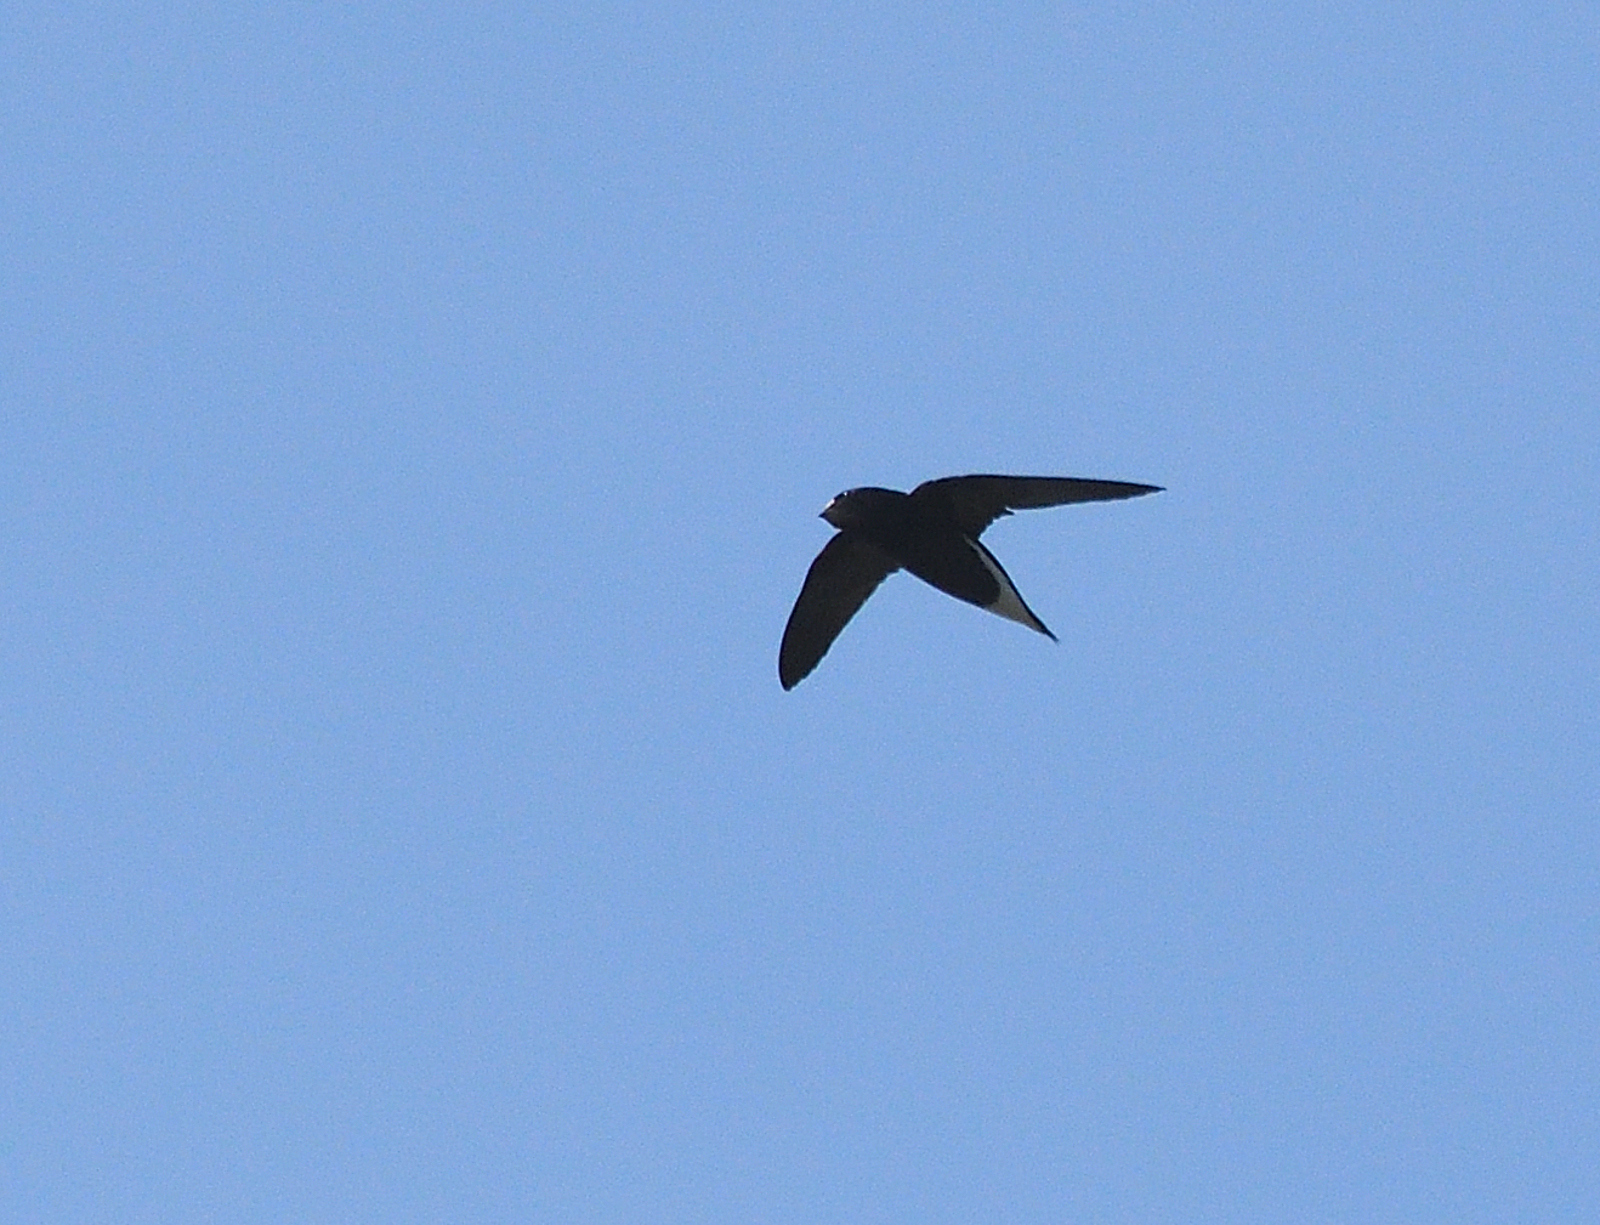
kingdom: Animalia
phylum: Chordata
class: Aves
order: Apodiformes
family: Apodidae
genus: Hirundapus
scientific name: Hirundapus giganteus
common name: Brown-backed needletail
